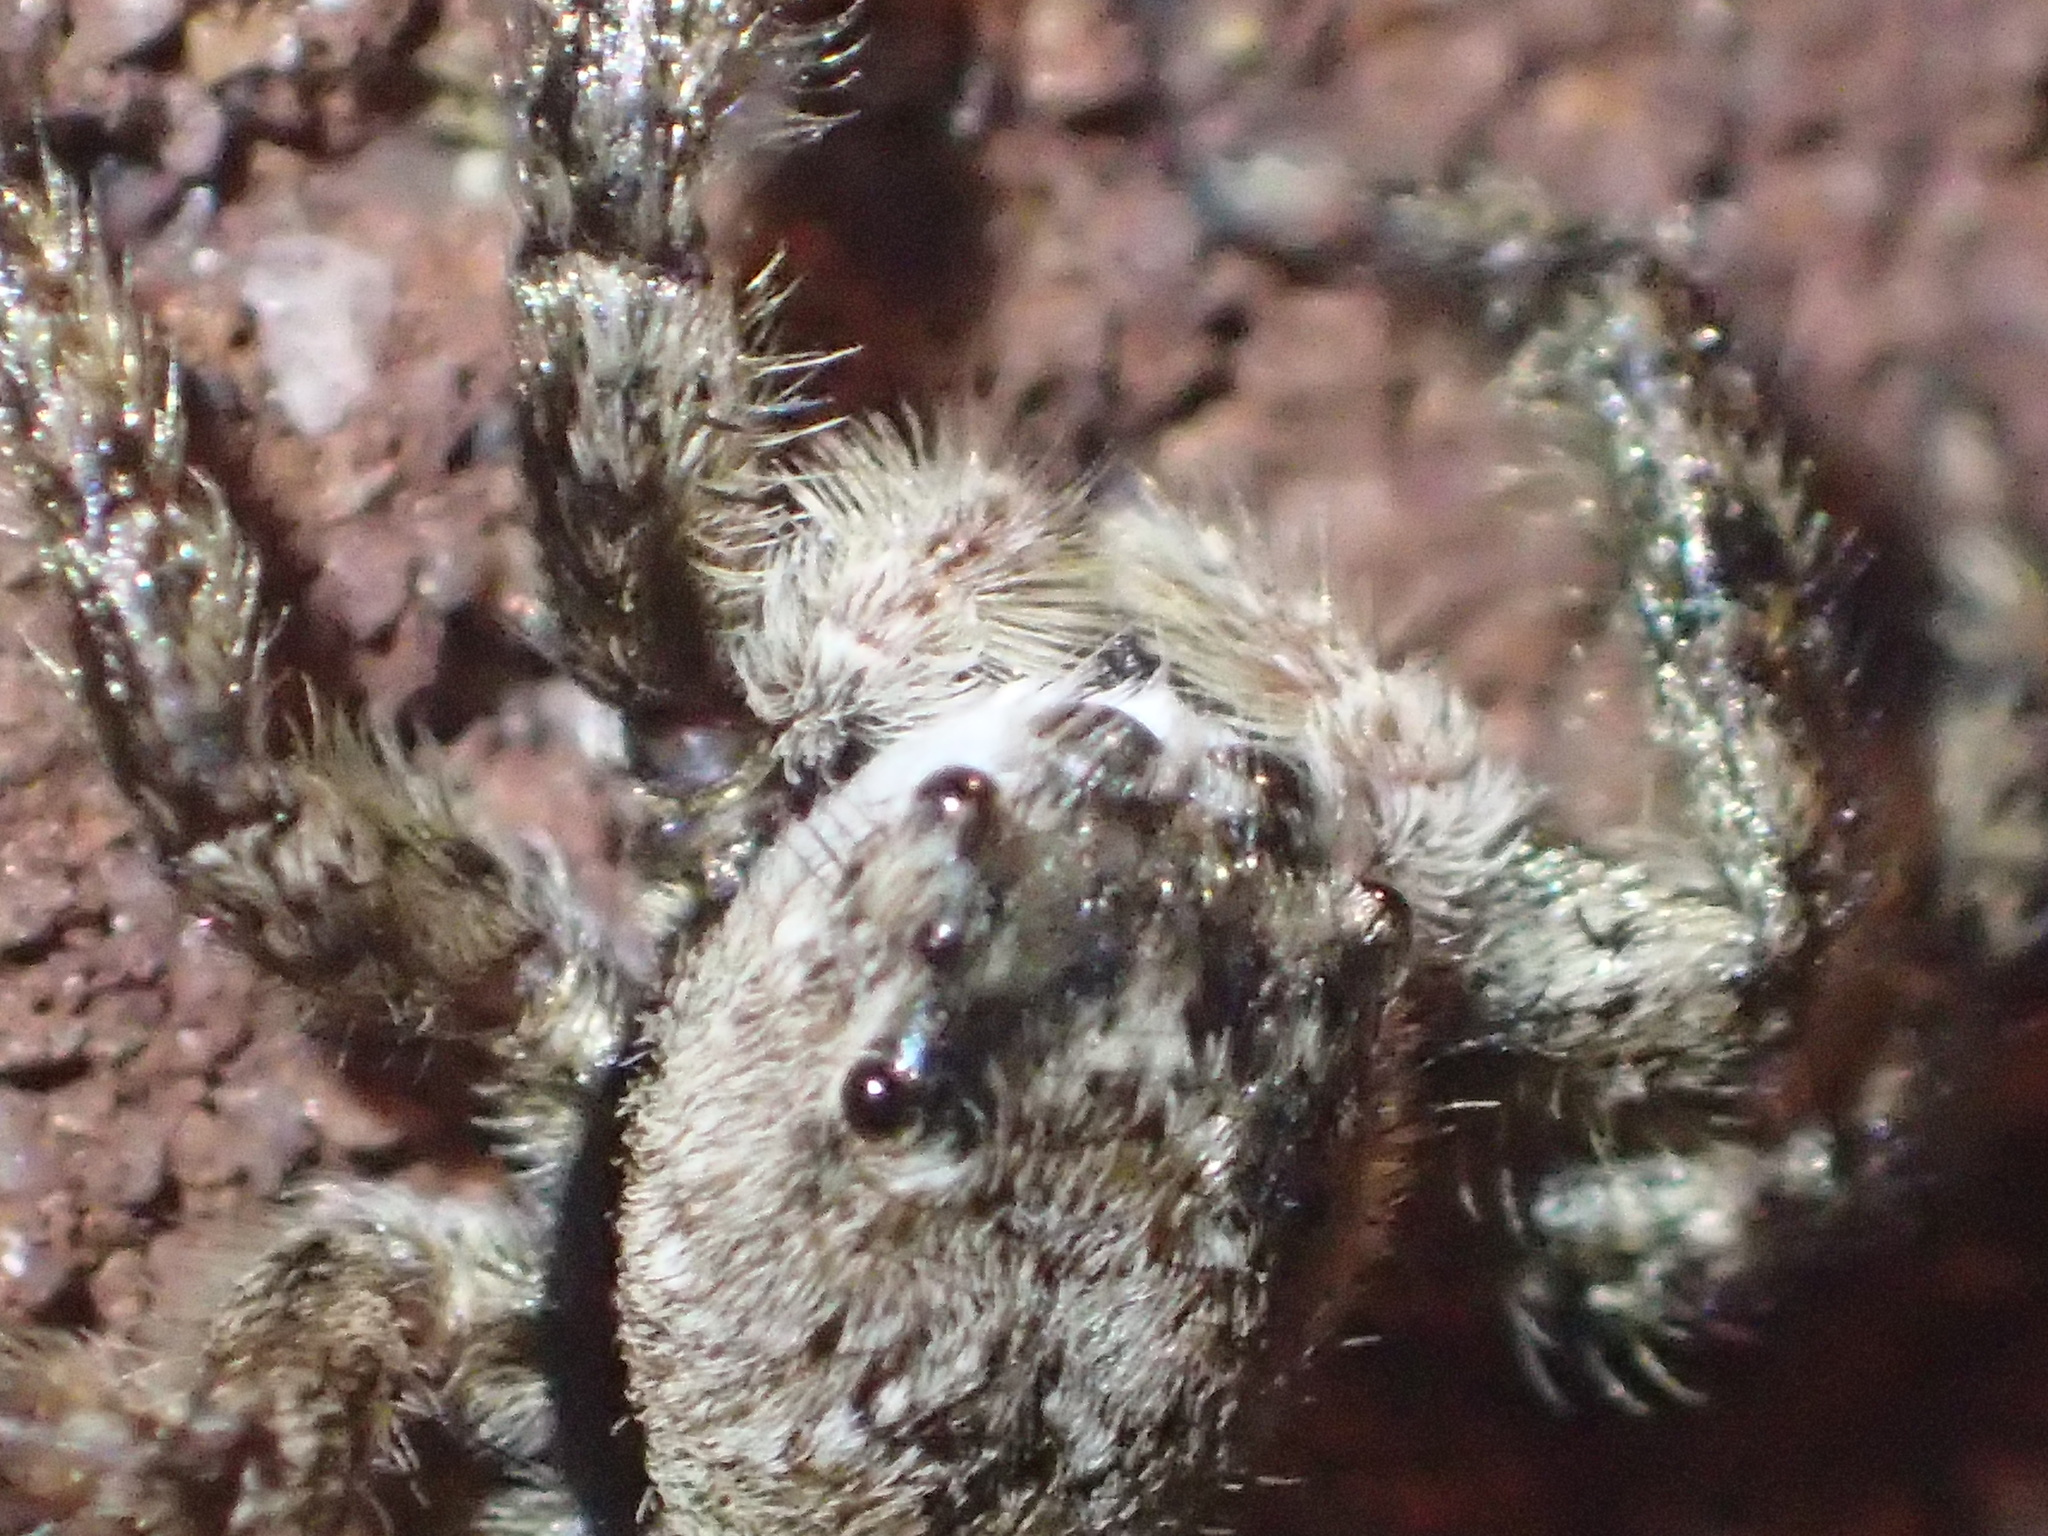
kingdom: Animalia
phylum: Arthropoda
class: Arachnida
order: Araneae
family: Salticidae
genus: Platycryptus
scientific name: Platycryptus undatus
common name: Tan jumping spider
